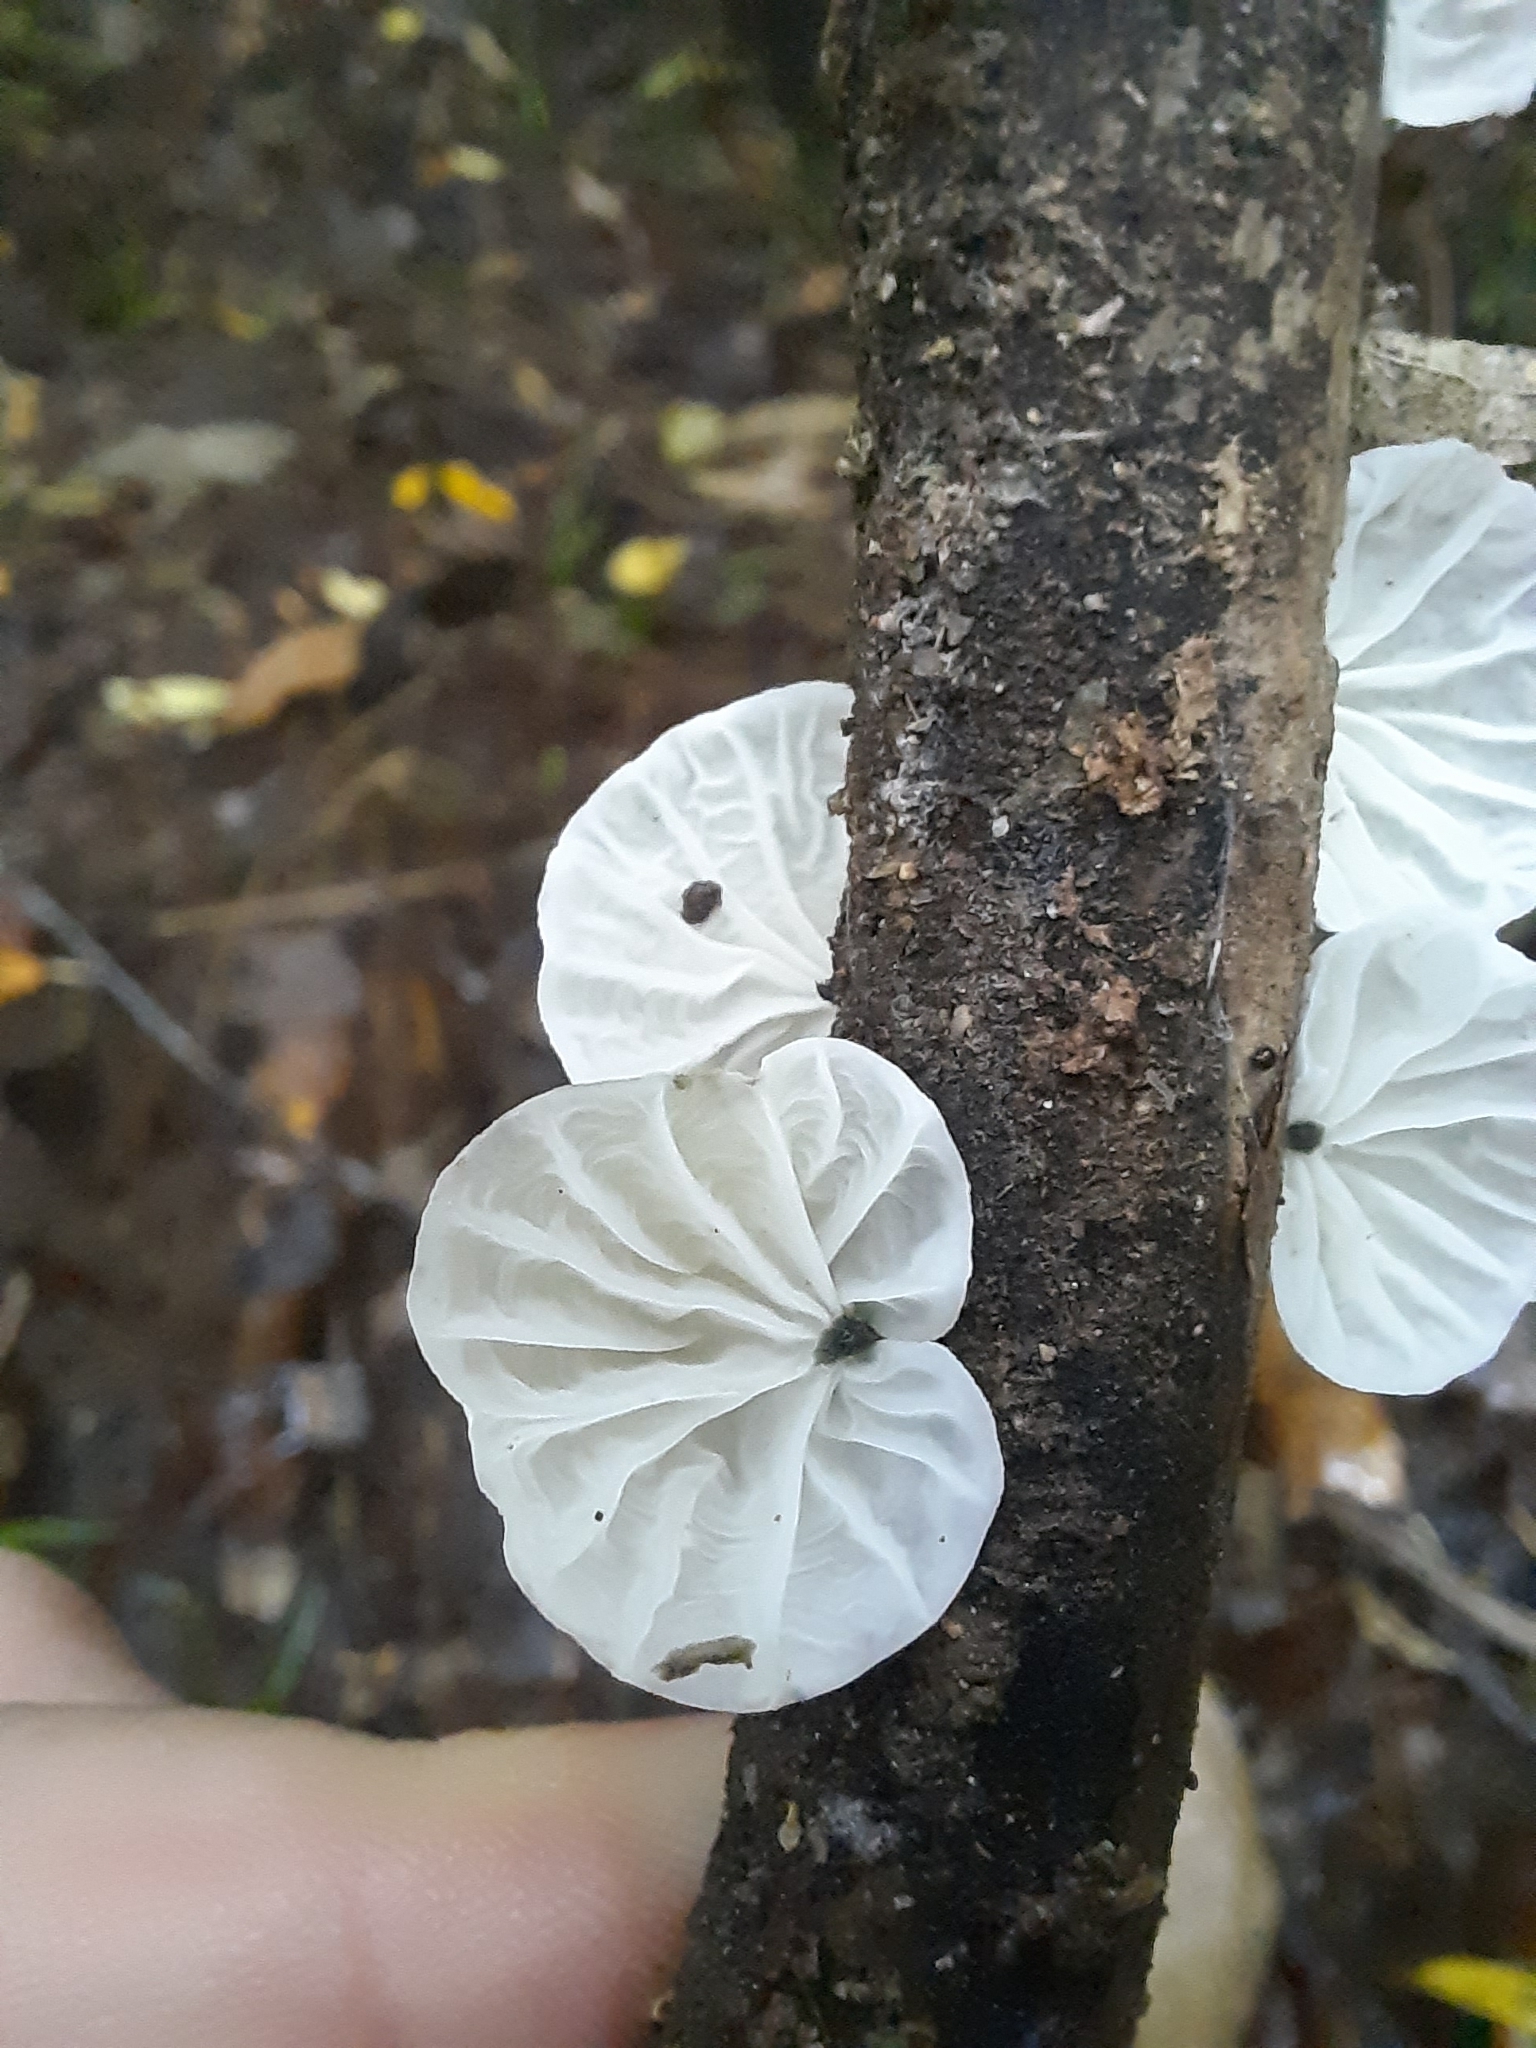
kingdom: Fungi
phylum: Basidiomycota
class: Agaricomycetes
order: Agaricales
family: Marasmiaceae
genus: Campanella
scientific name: Campanella tristis
